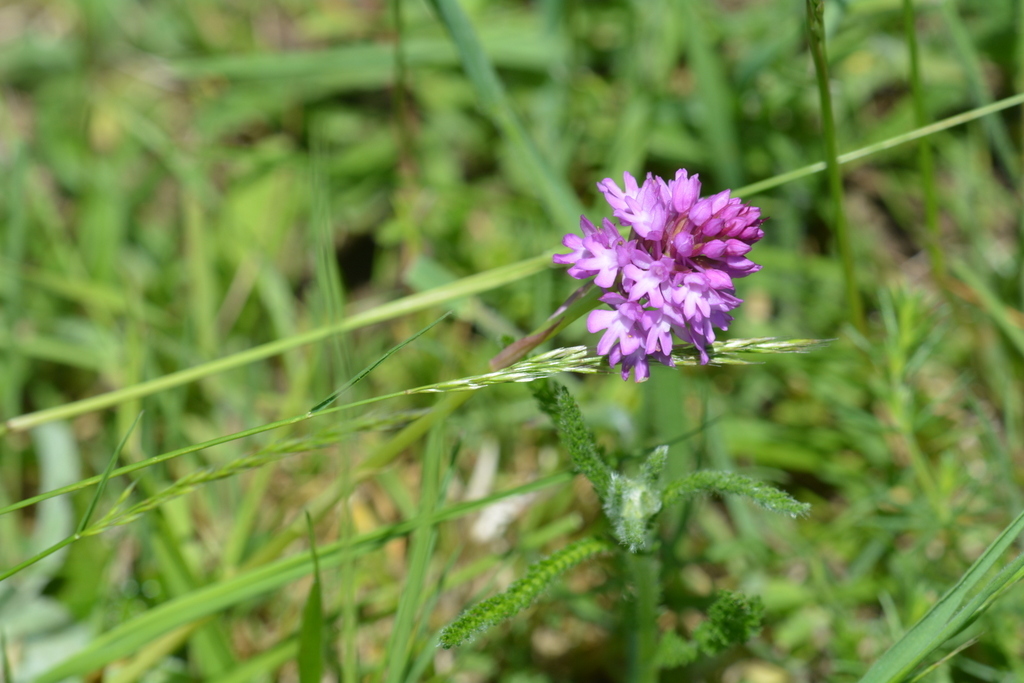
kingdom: Plantae
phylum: Tracheophyta
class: Liliopsida
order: Asparagales
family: Orchidaceae
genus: Anacamptis
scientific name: Anacamptis pyramidalis
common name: Pyramidal orchid
